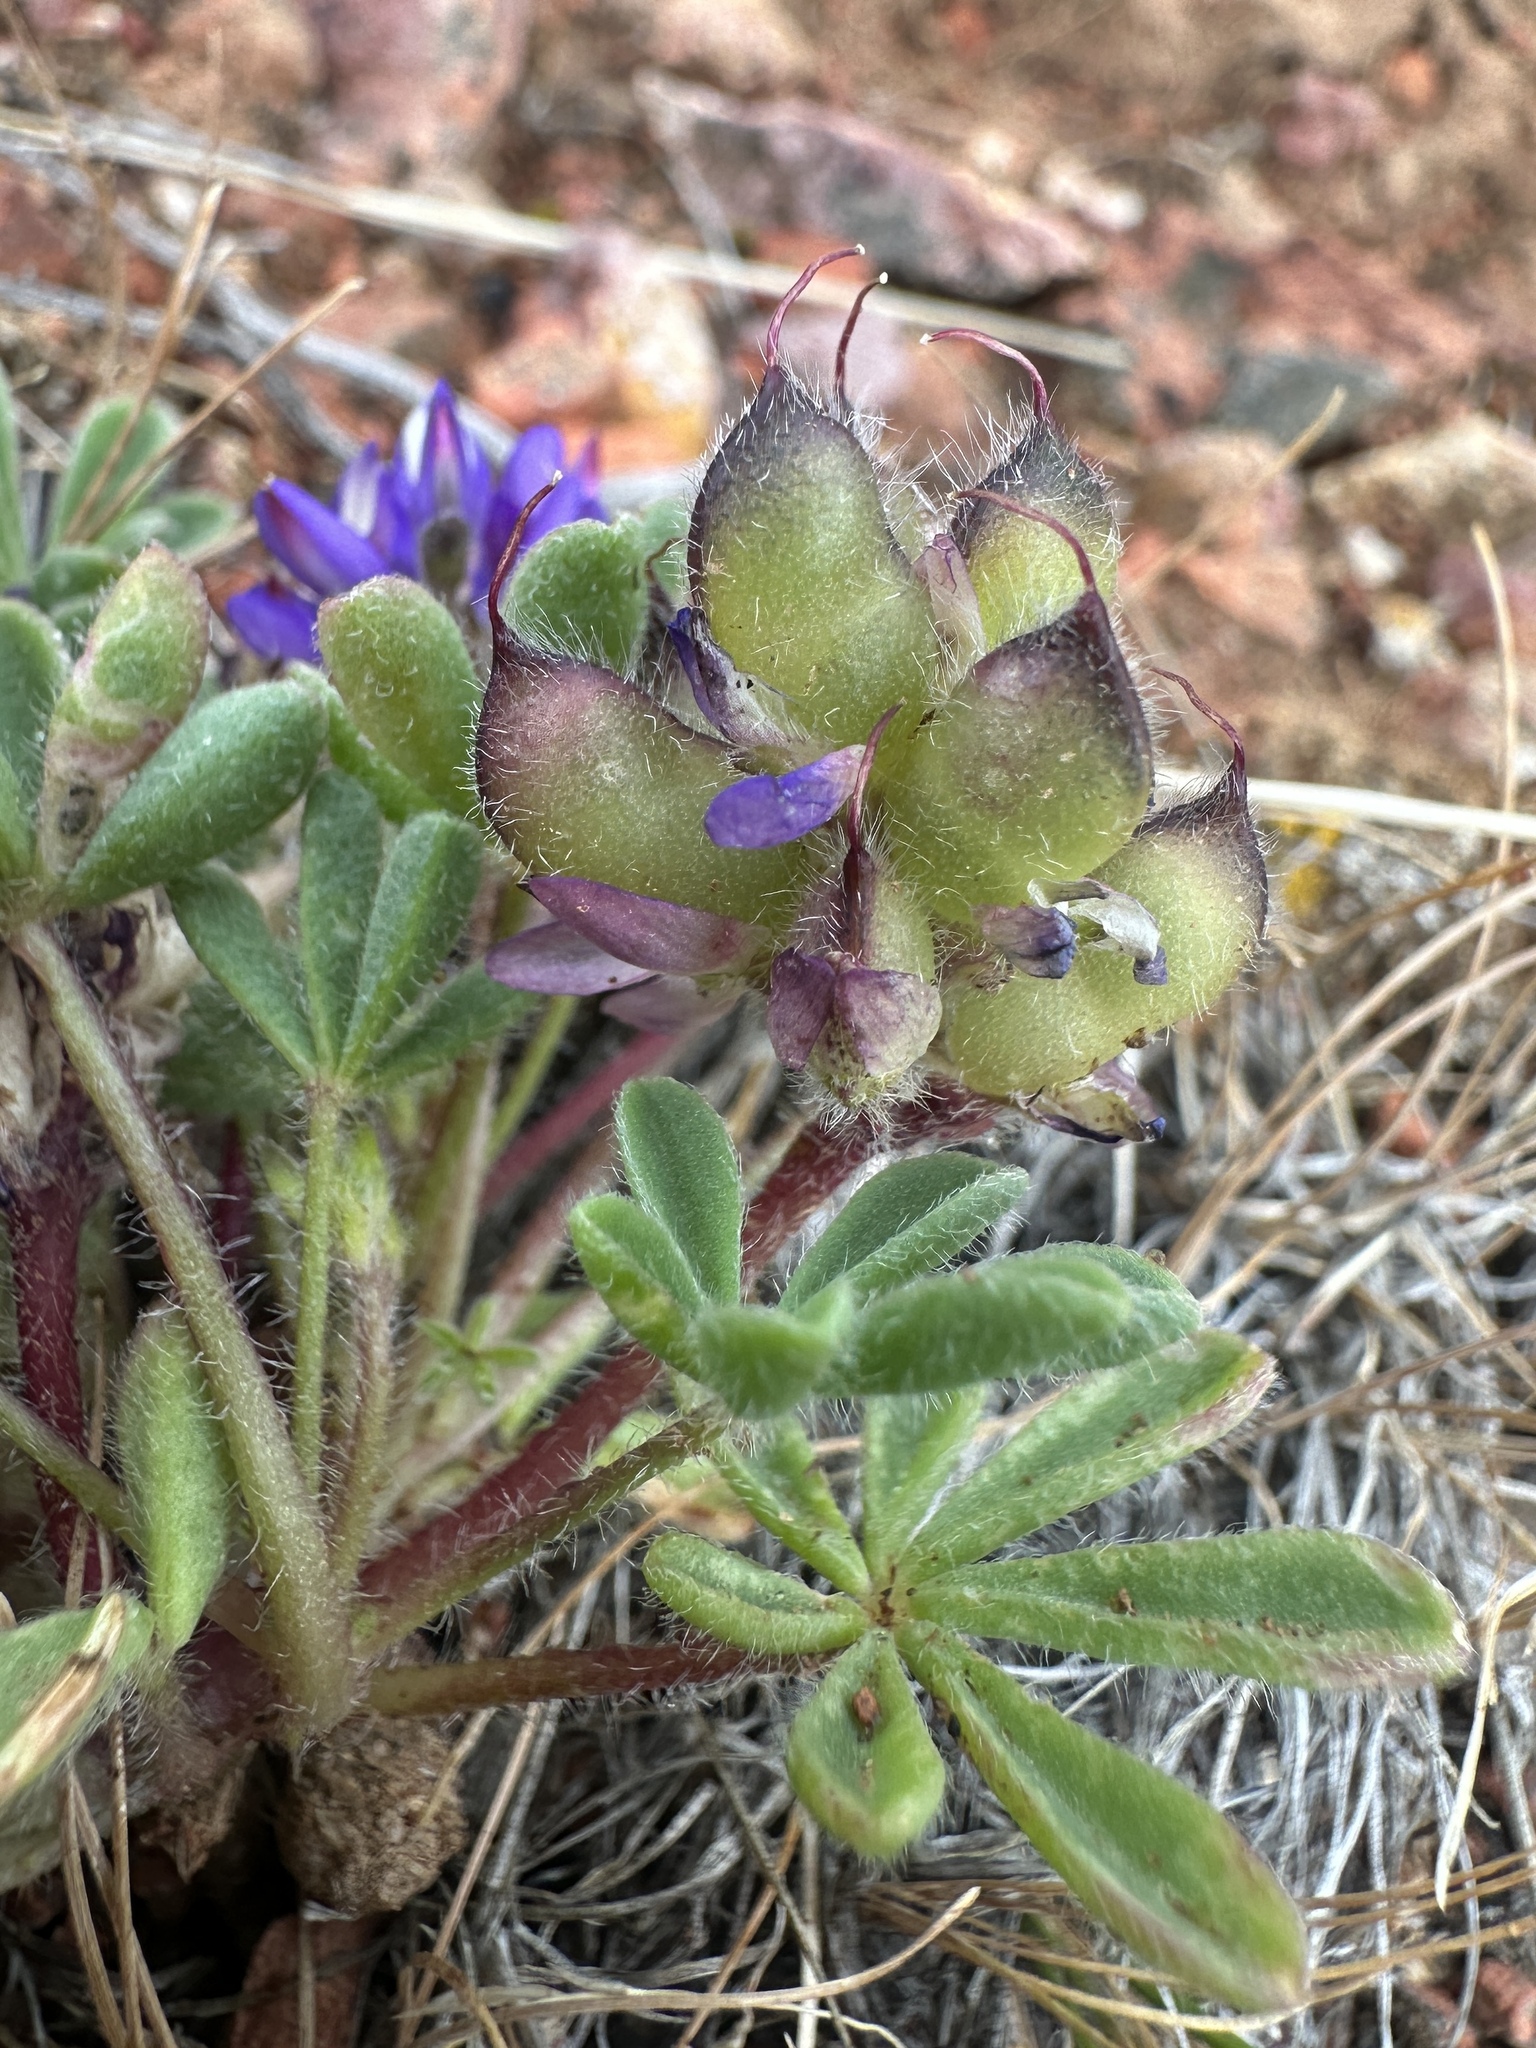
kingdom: Plantae
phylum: Tracheophyta
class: Magnoliopsida
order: Fabales
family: Fabaceae
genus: Lupinus
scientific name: Lupinus brevicaulis
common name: Sand lupine
